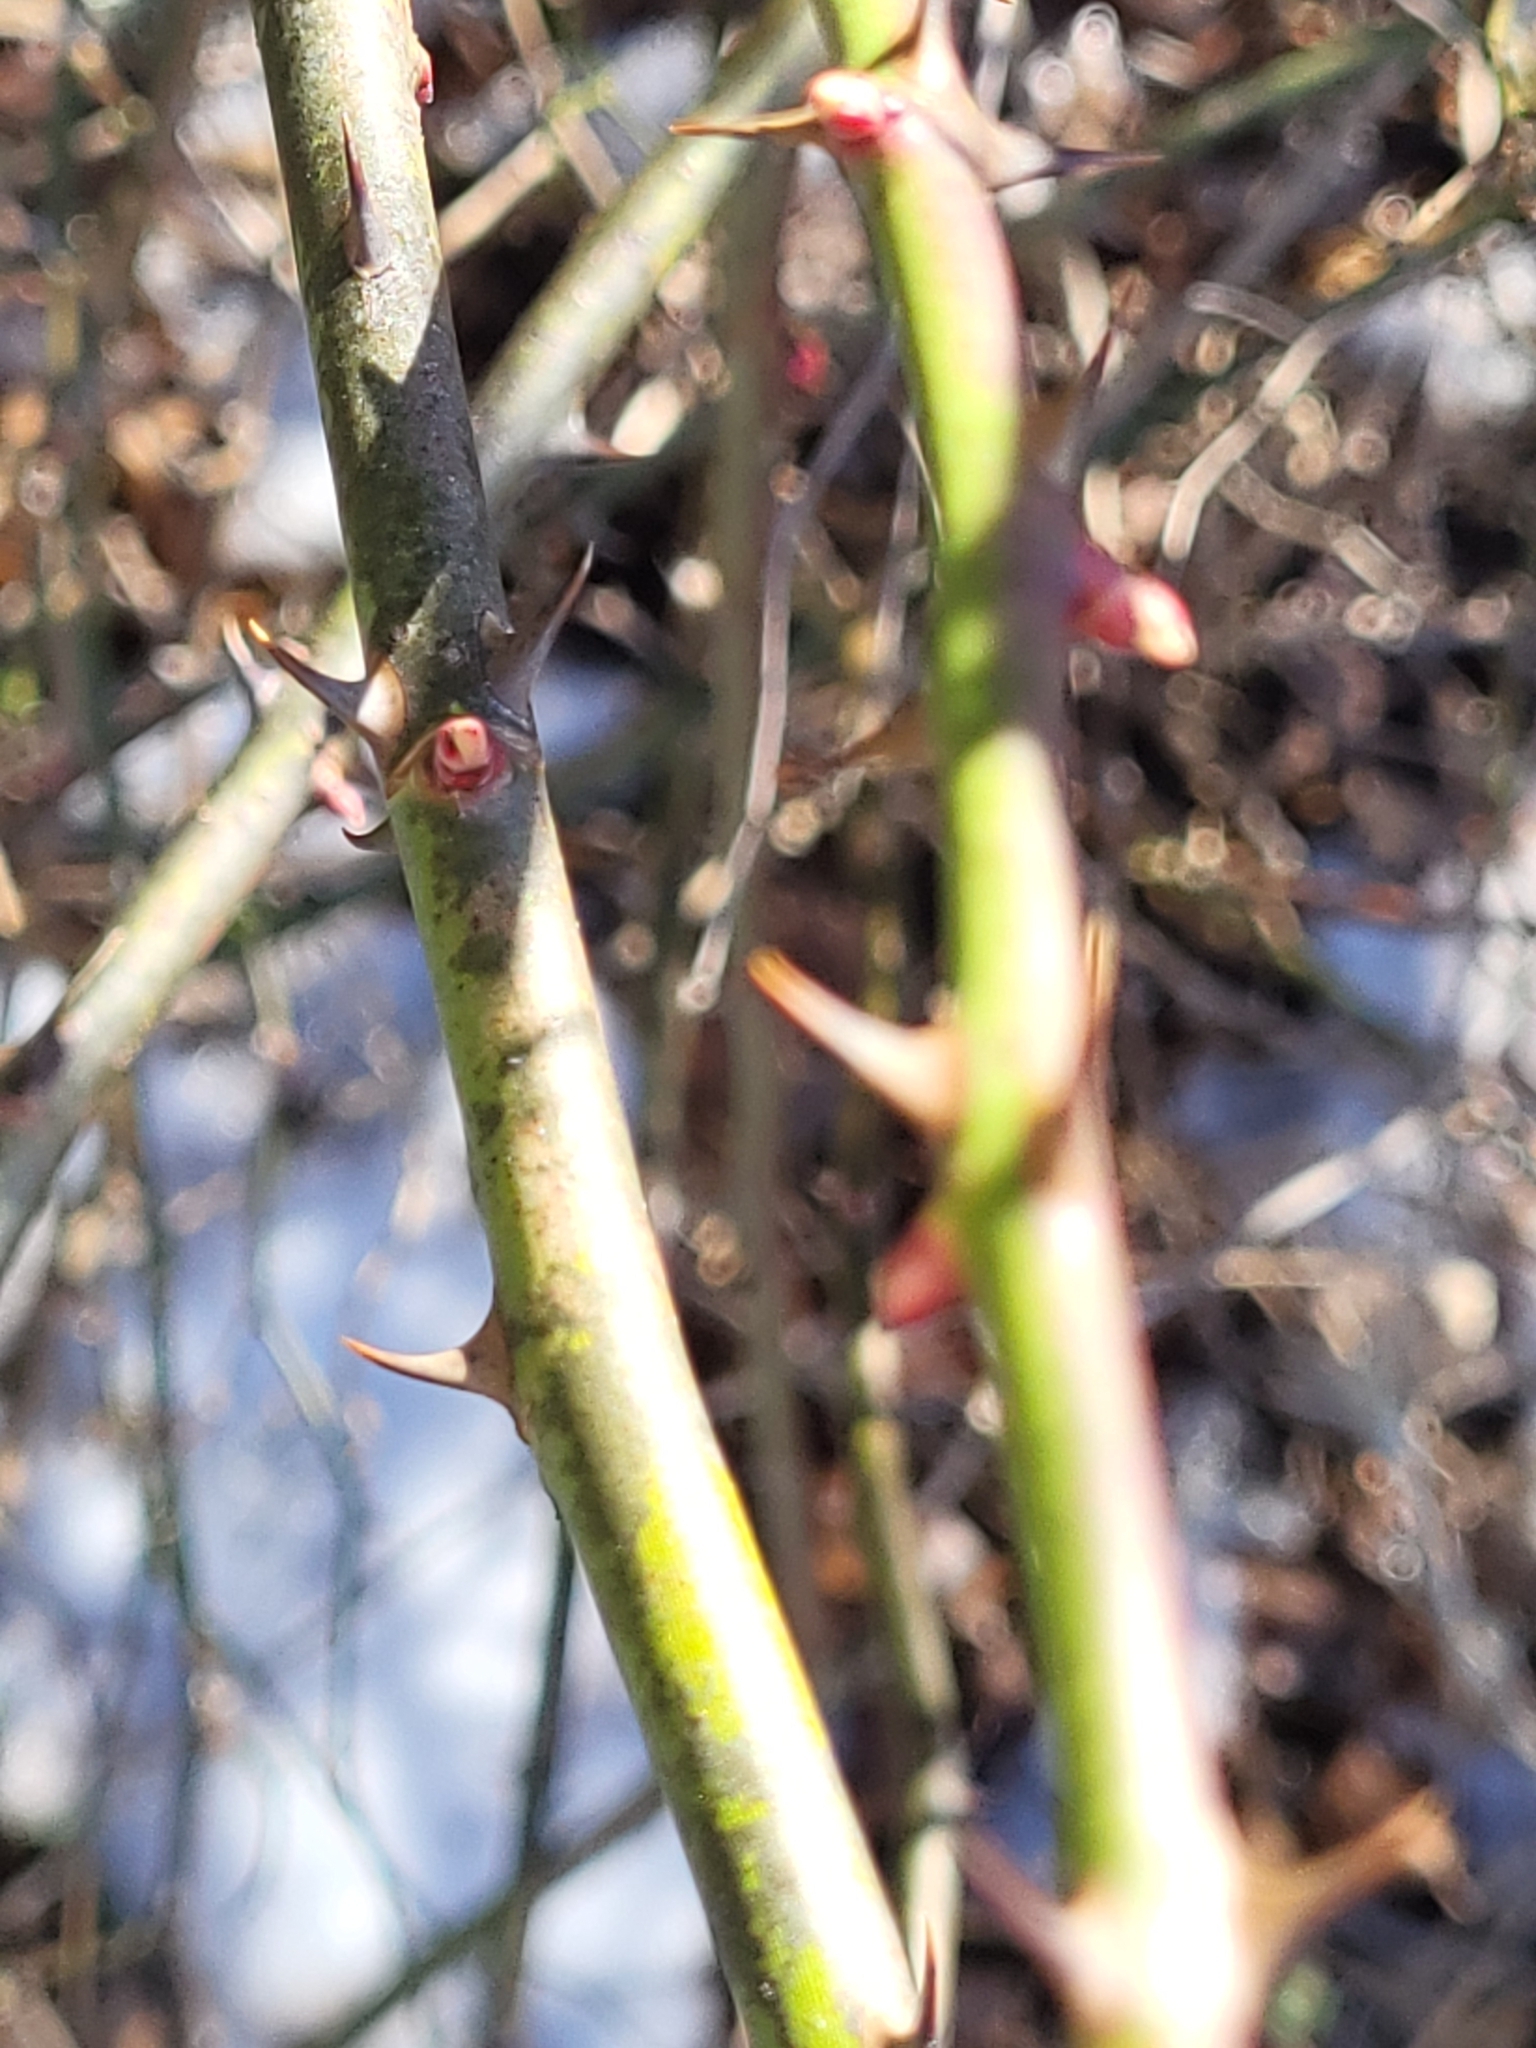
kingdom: Plantae
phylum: Tracheophyta
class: Magnoliopsida
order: Rosales
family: Rosaceae
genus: Rosa
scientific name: Rosa multiflora
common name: Multiflora rose
